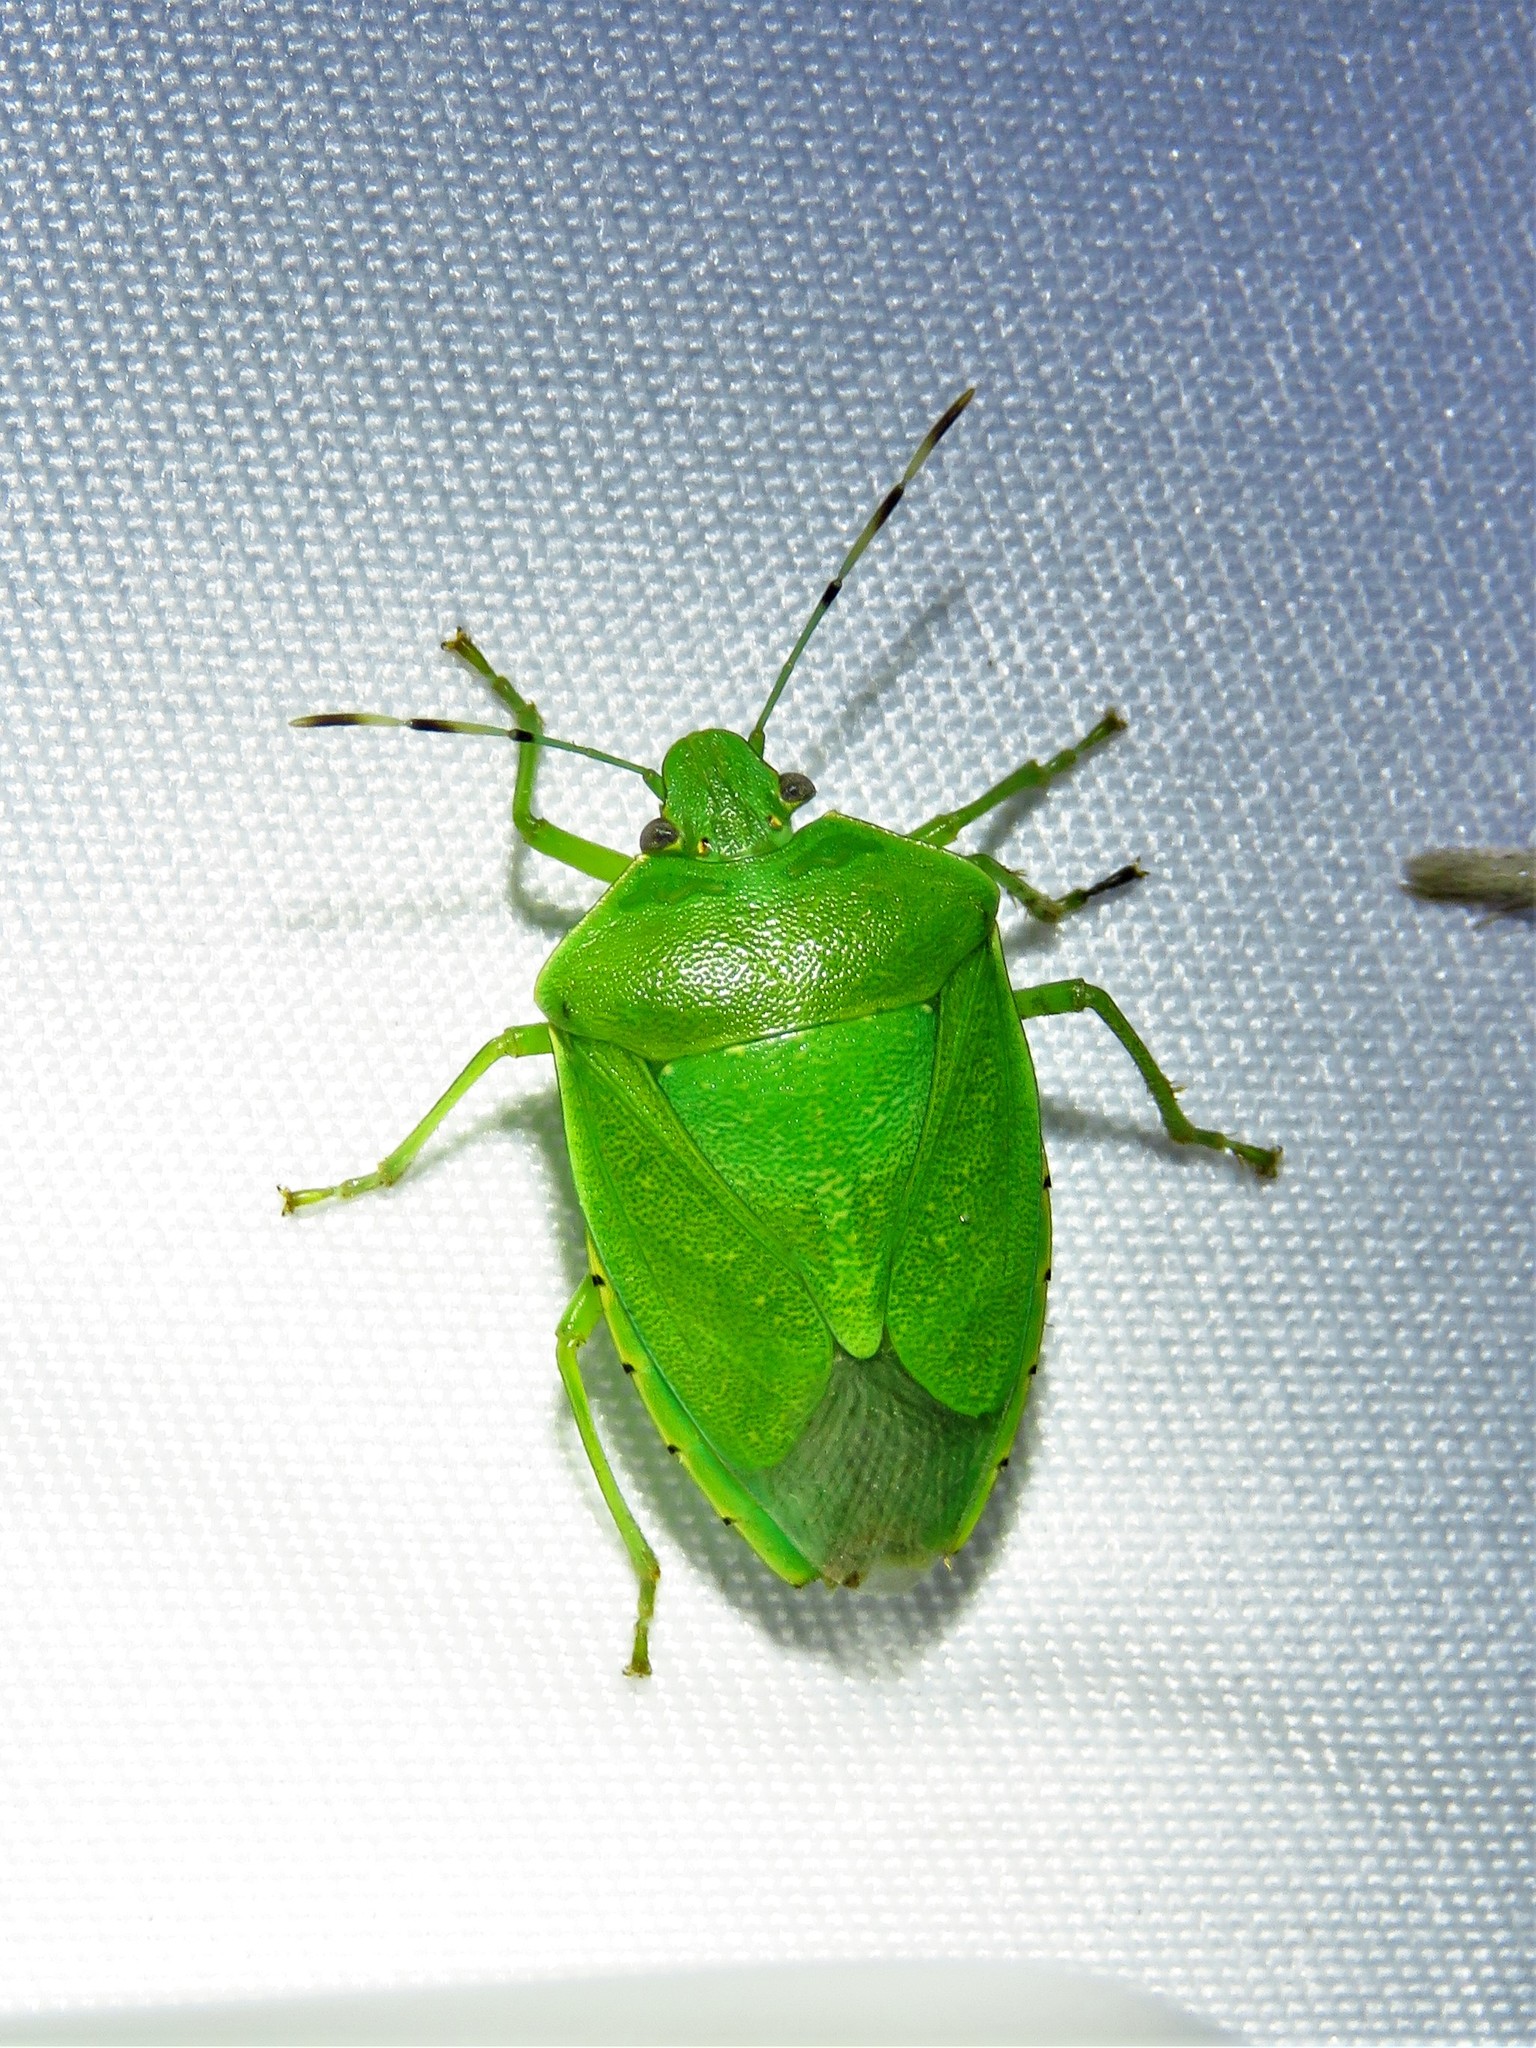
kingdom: Animalia
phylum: Arthropoda
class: Insecta
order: Hemiptera
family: Pentatomidae
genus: Chinavia
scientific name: Chinavia hilaris
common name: Green stink bug
